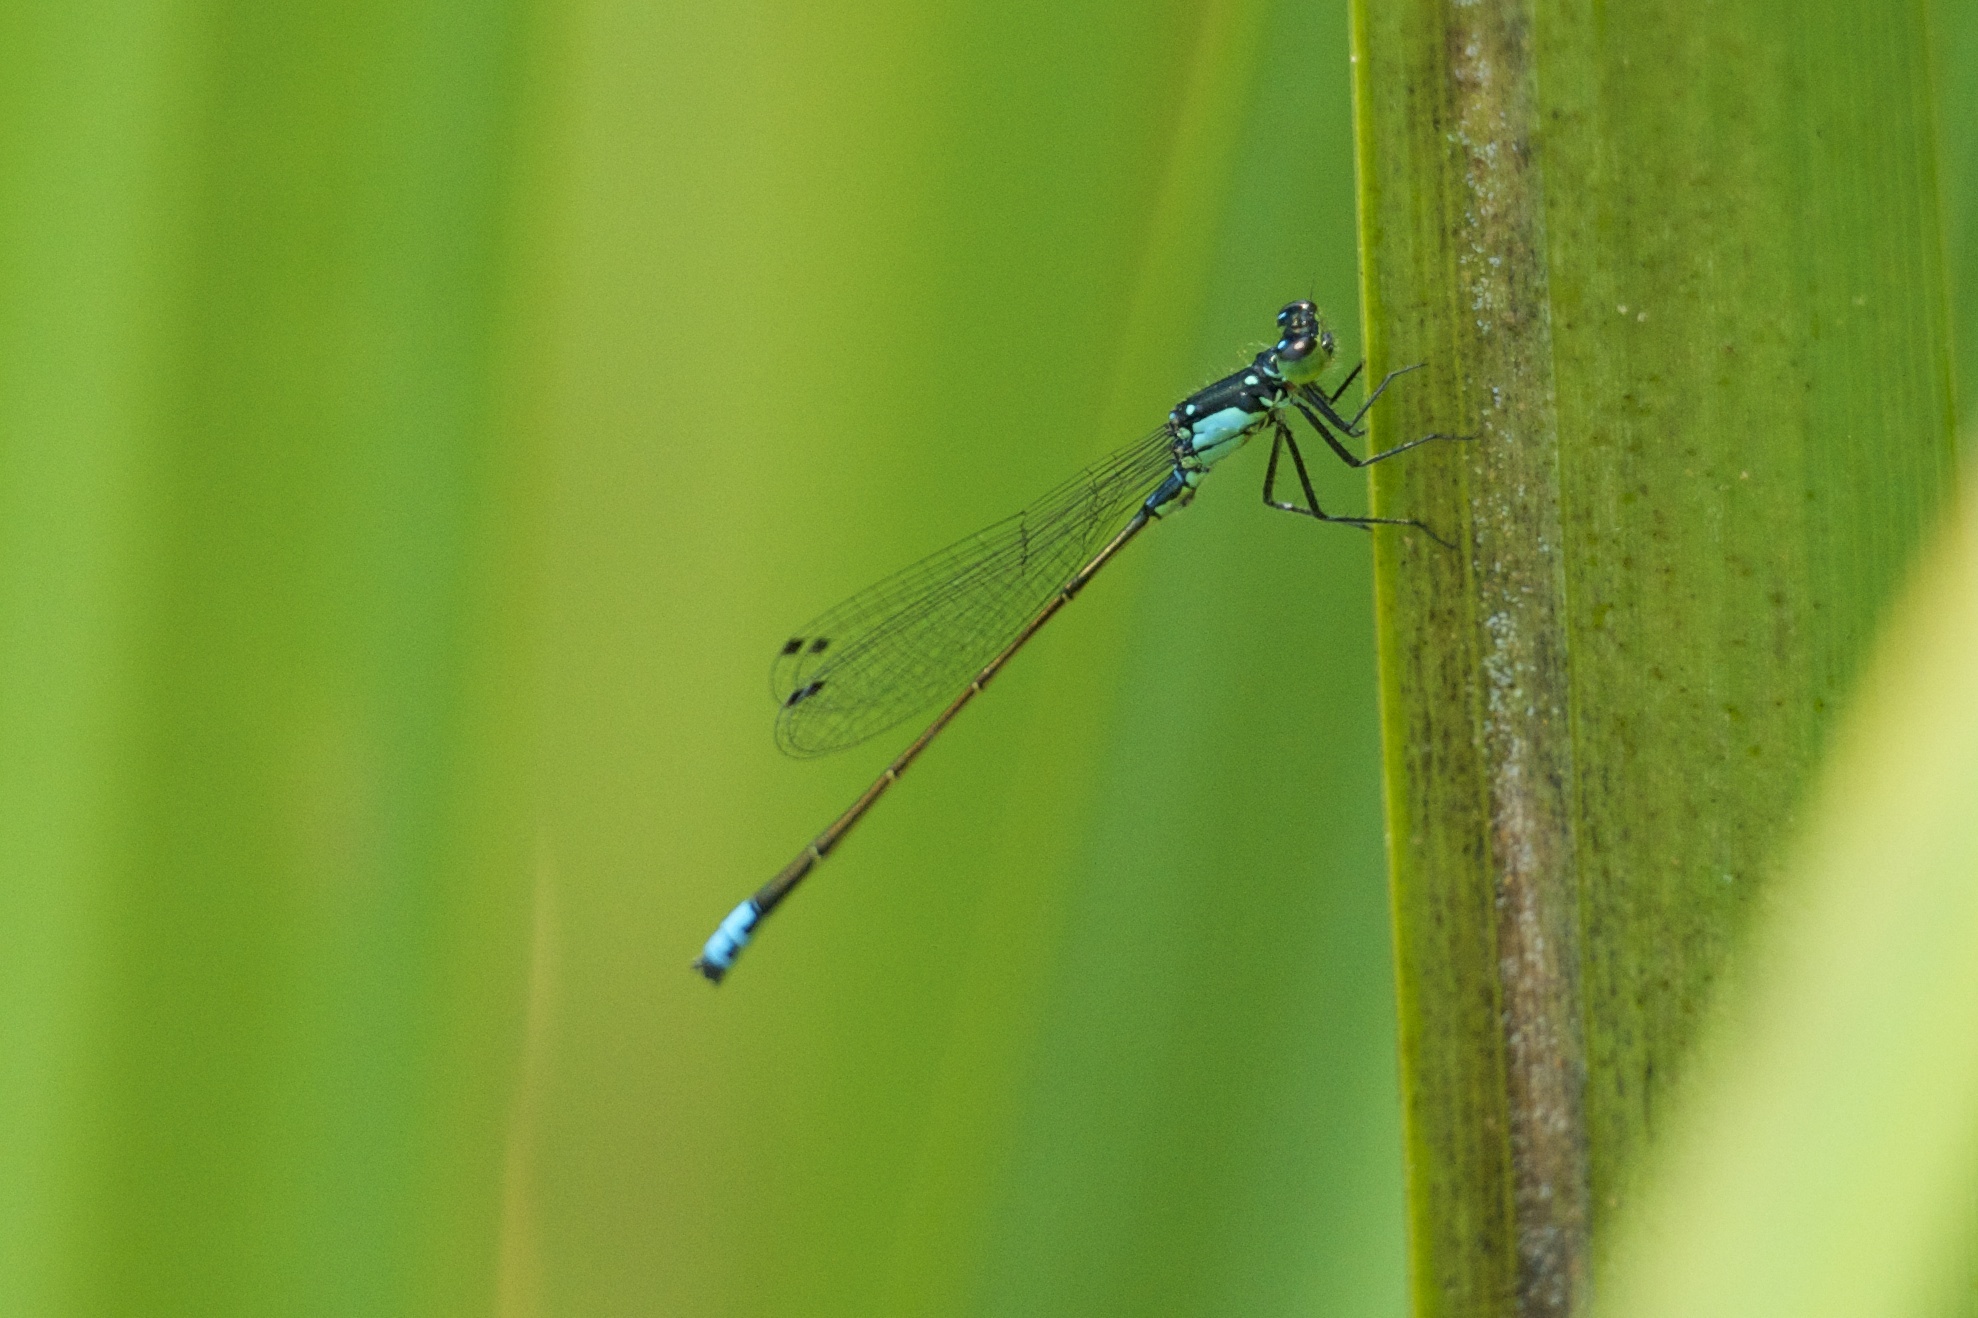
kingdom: Animalia
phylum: Arthropoda
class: Insecta
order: Odonata
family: Coenagrionidae
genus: Ischnura
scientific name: Ischnura cervula
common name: Pacific forktail
